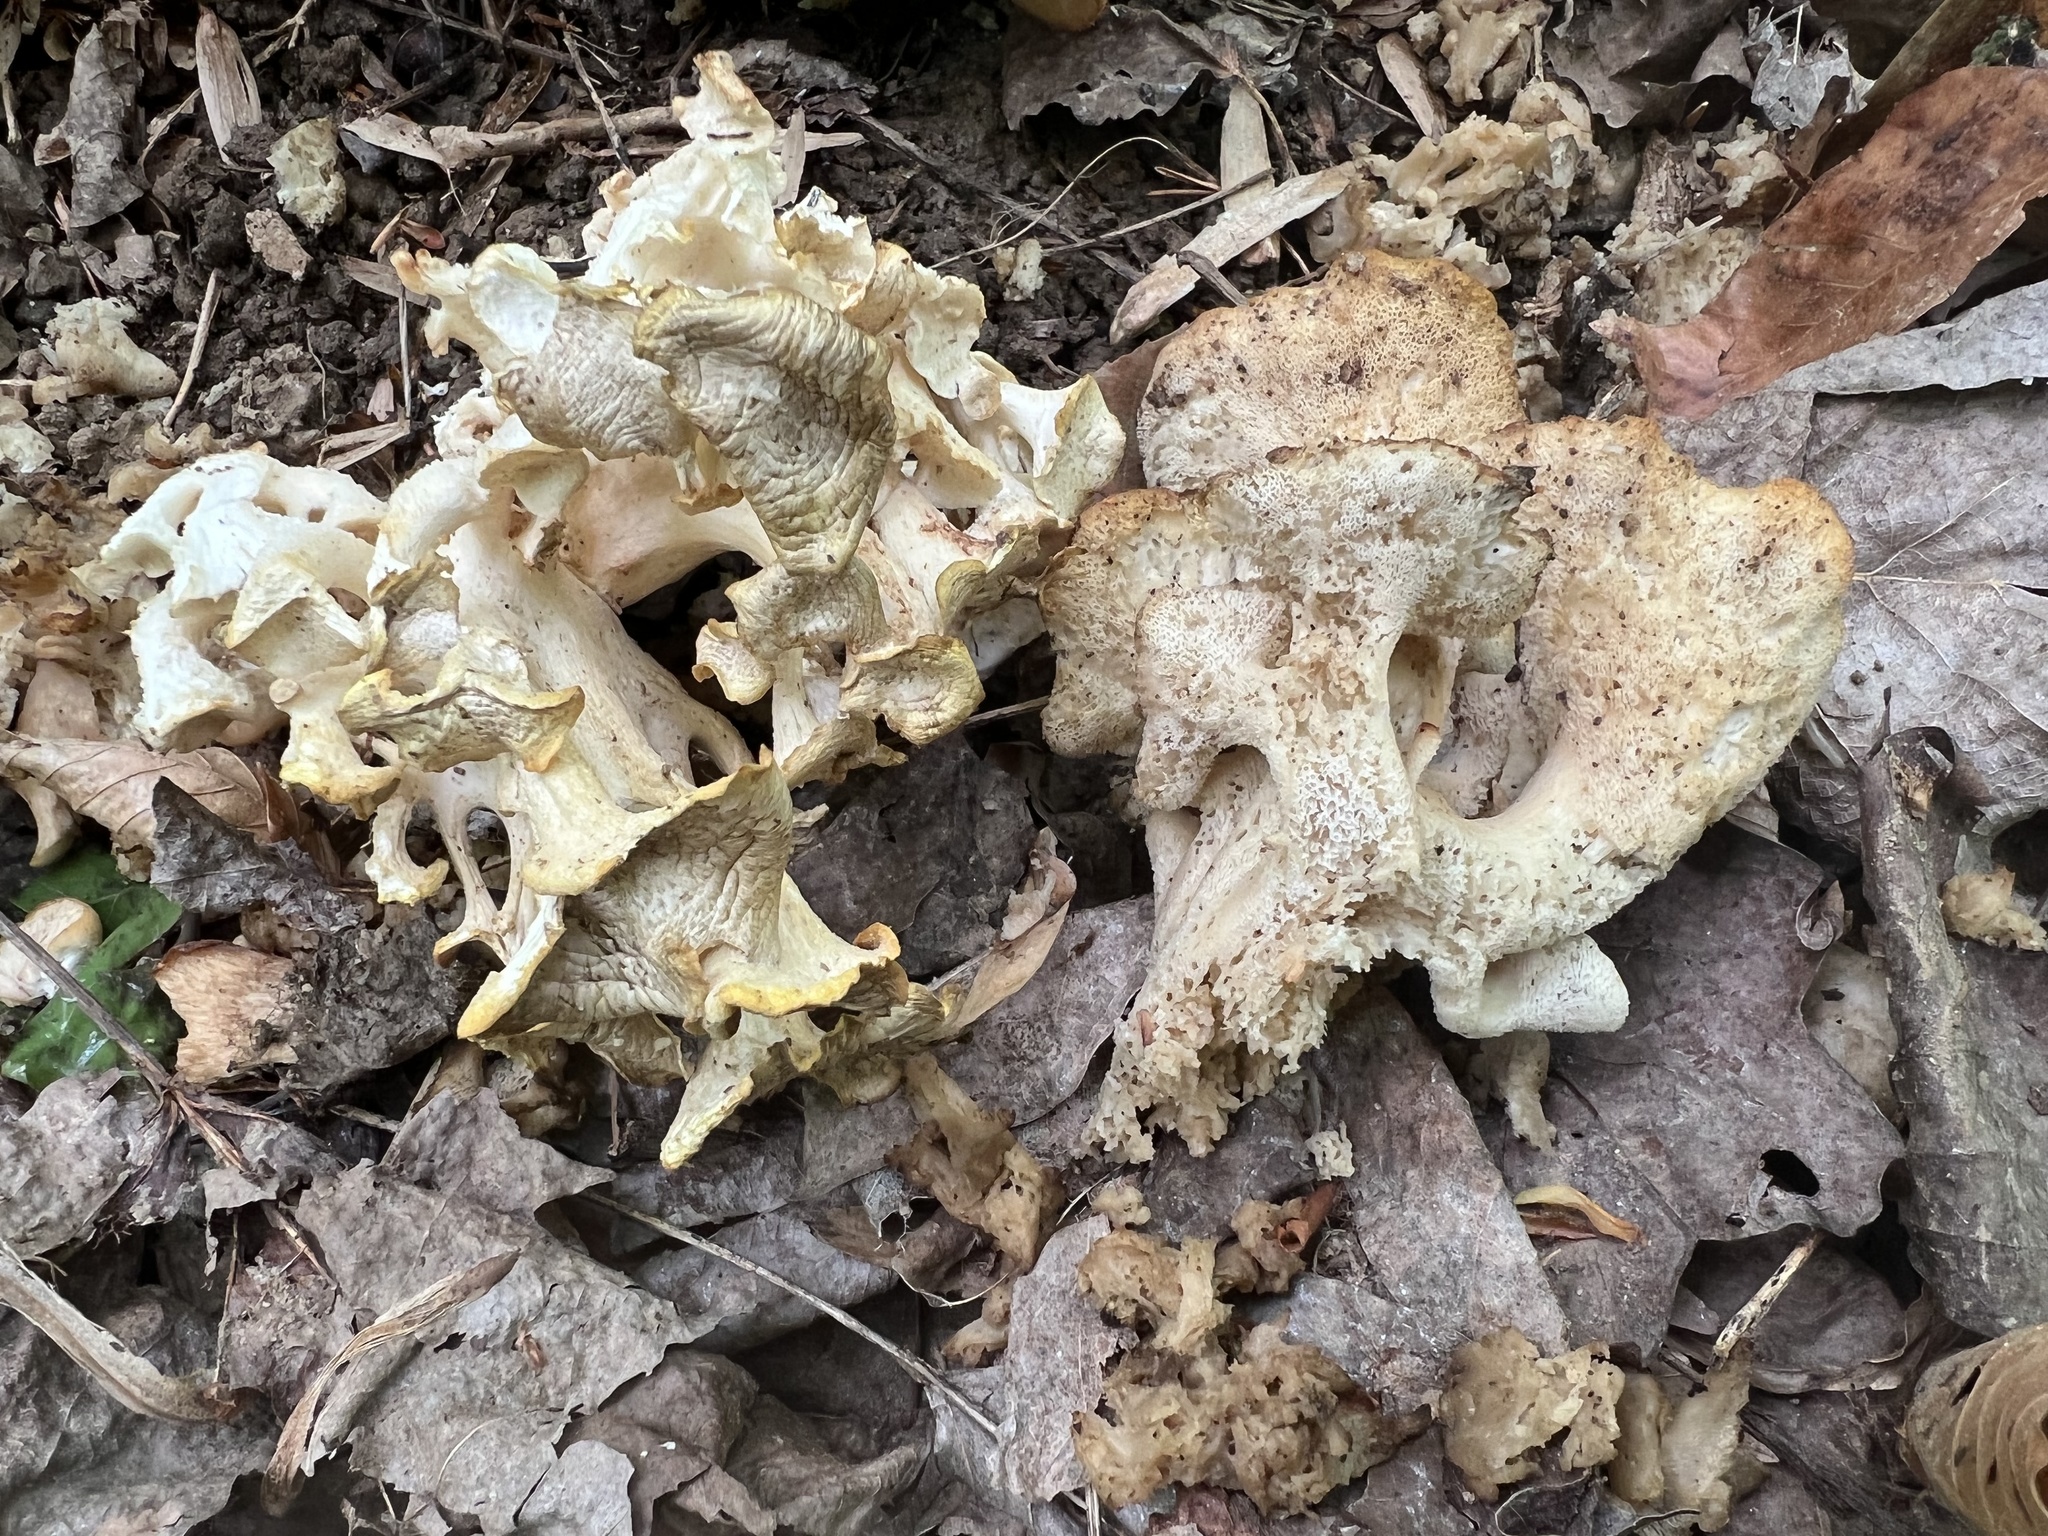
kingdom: Fungi
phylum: Basidiomycota
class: Agaricomycetes
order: Polyporales
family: Polyporaceae
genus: Polyporus
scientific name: Polyporus umbellatus
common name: Umbrella polypore
